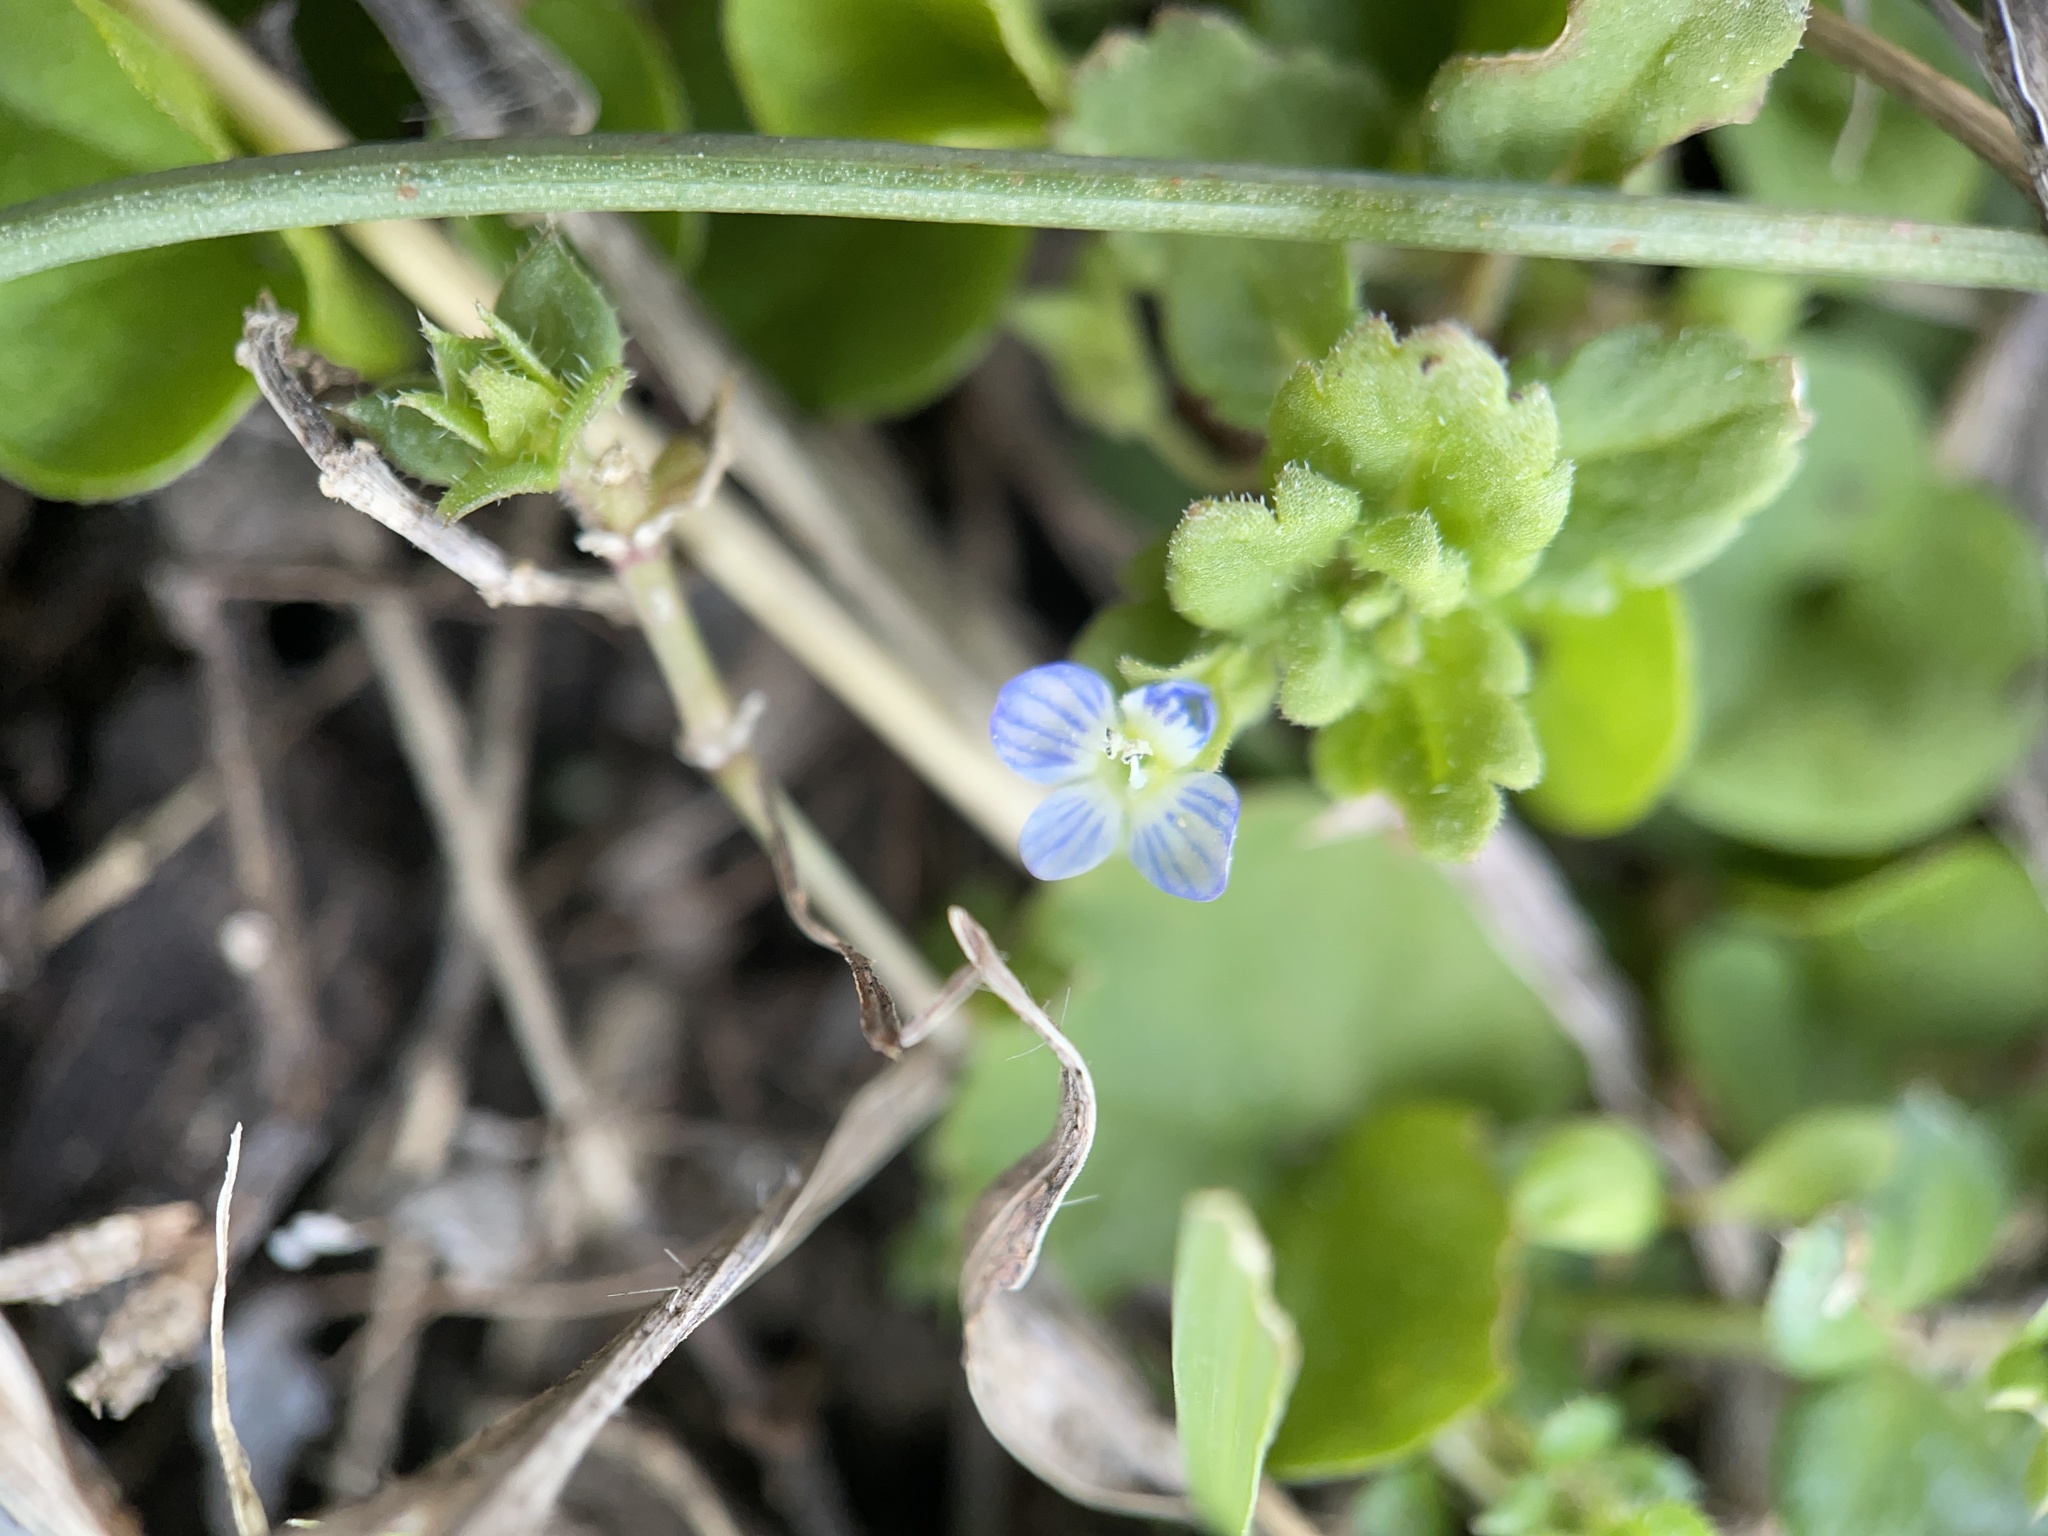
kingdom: Plantae
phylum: Tracheophyta
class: Magnoliopsida
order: Lamiales
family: Plantaginaceae
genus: Veronica
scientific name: Veronica polita
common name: Grey field-speedwell
